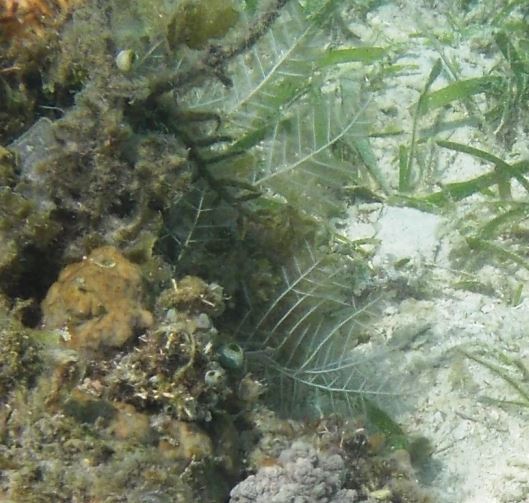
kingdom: Animalia
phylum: Cnidaria
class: Hydrozoa
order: Leptothecata
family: Aglaopheniidae
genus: Macrorhynchia
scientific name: Macrorhynchia phoenicea
